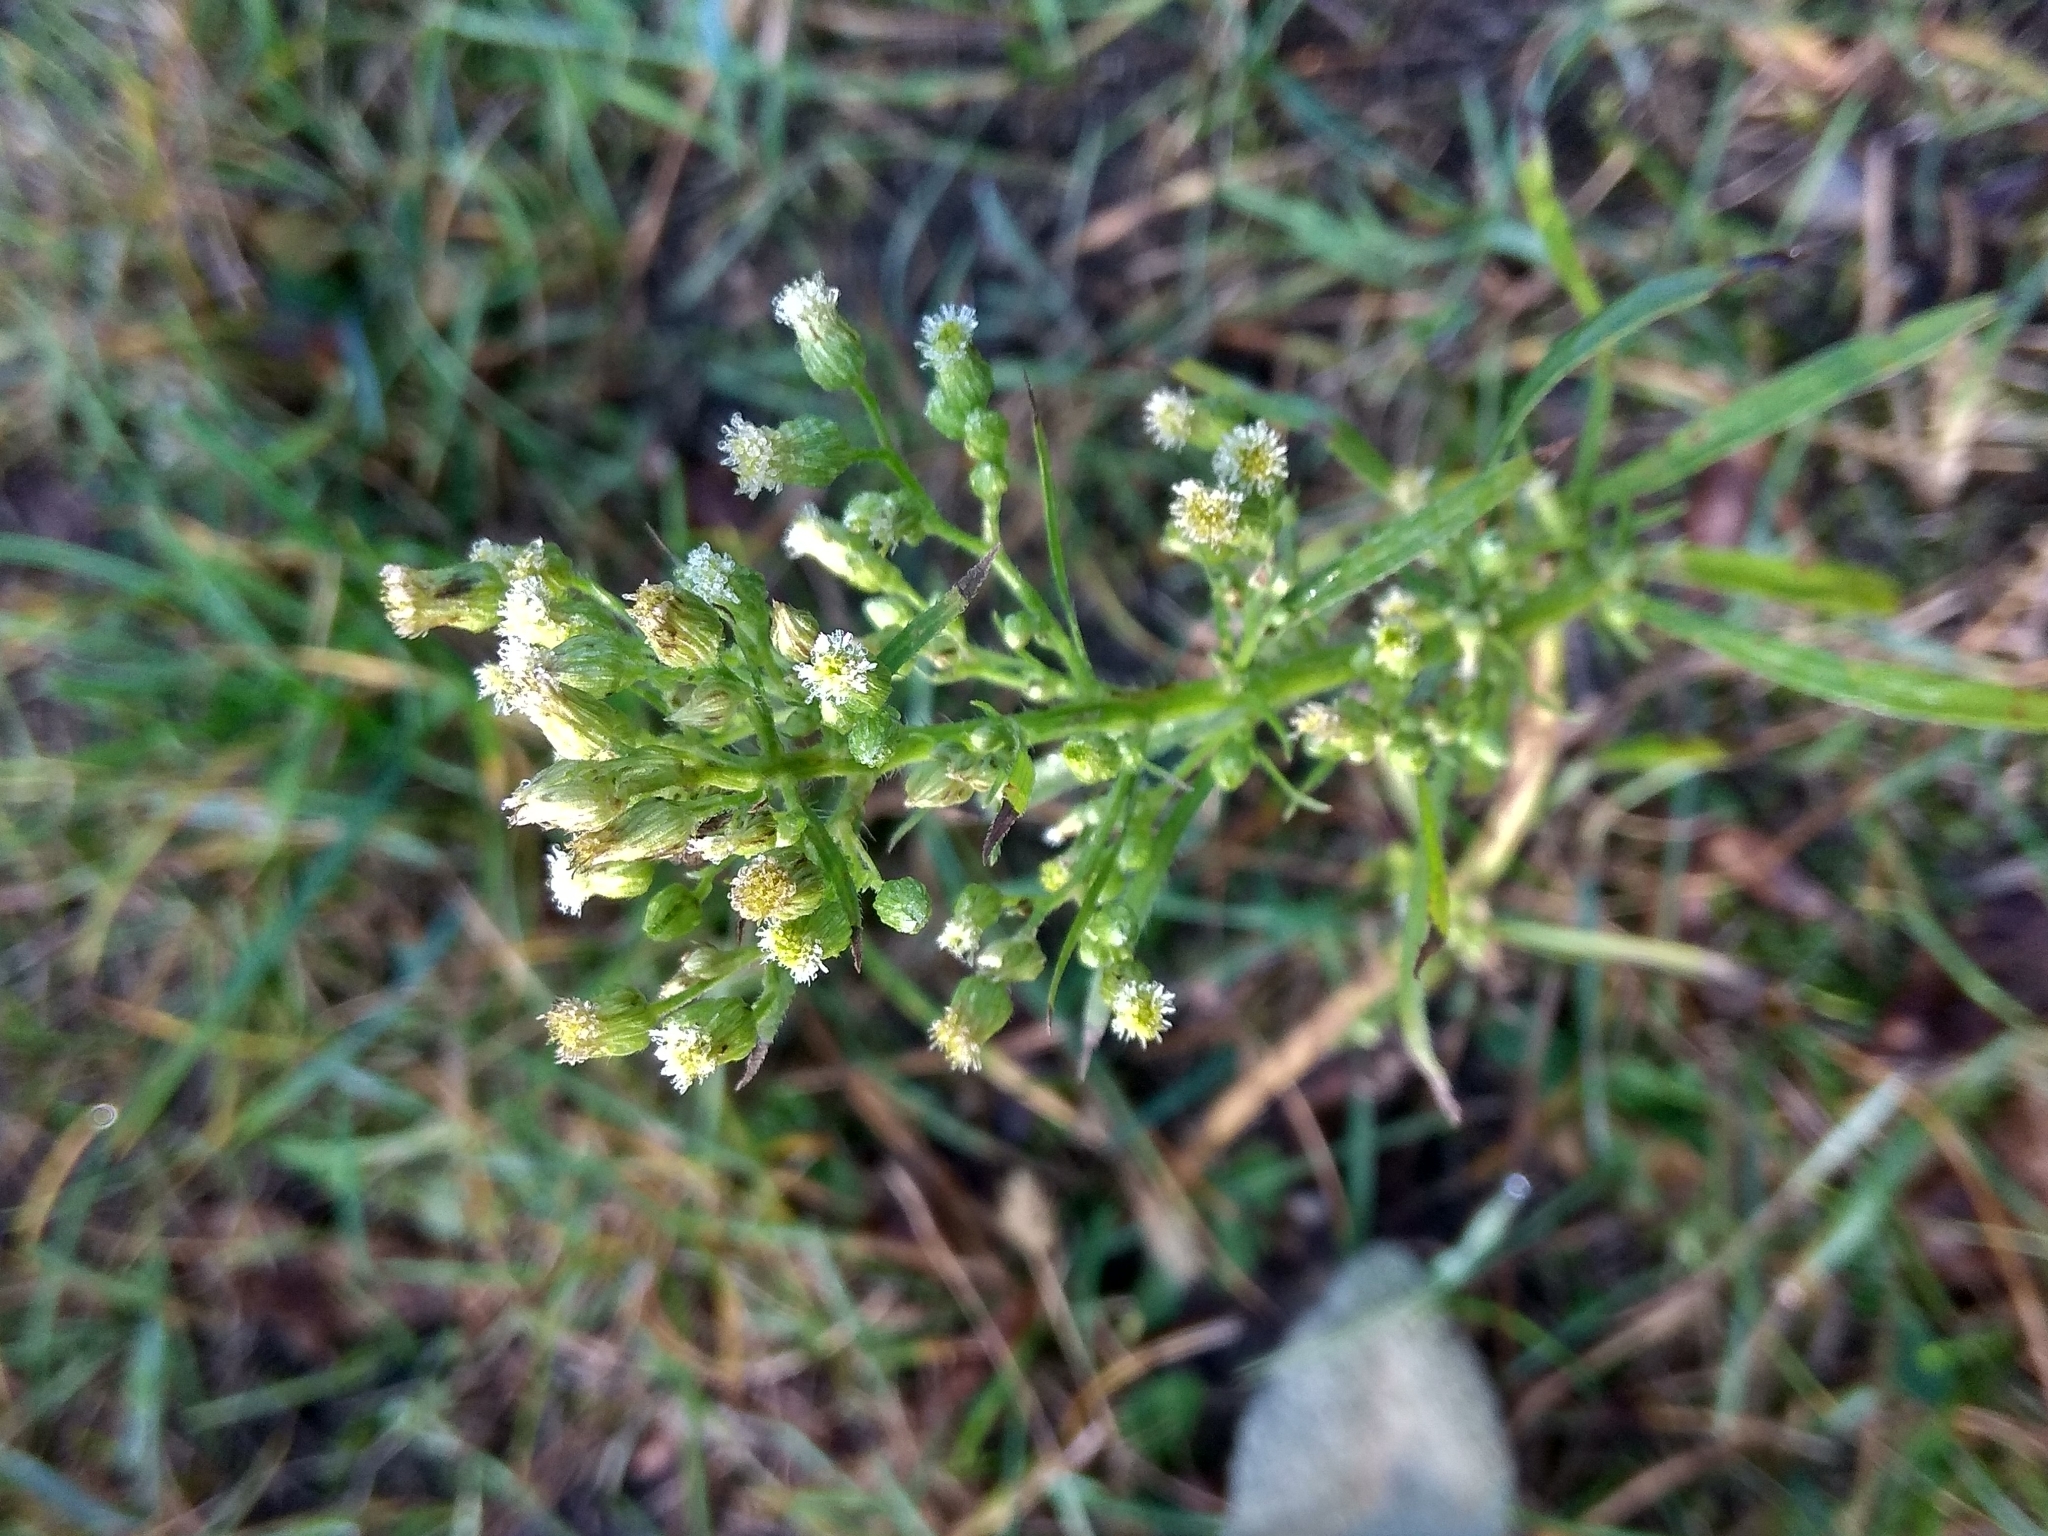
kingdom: Plantae
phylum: Tracheophyta
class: Magnoliopsida
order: Asterales
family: Asteraceae
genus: Erigeron
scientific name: Erigeron canadensis
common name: Canadian fleabane
